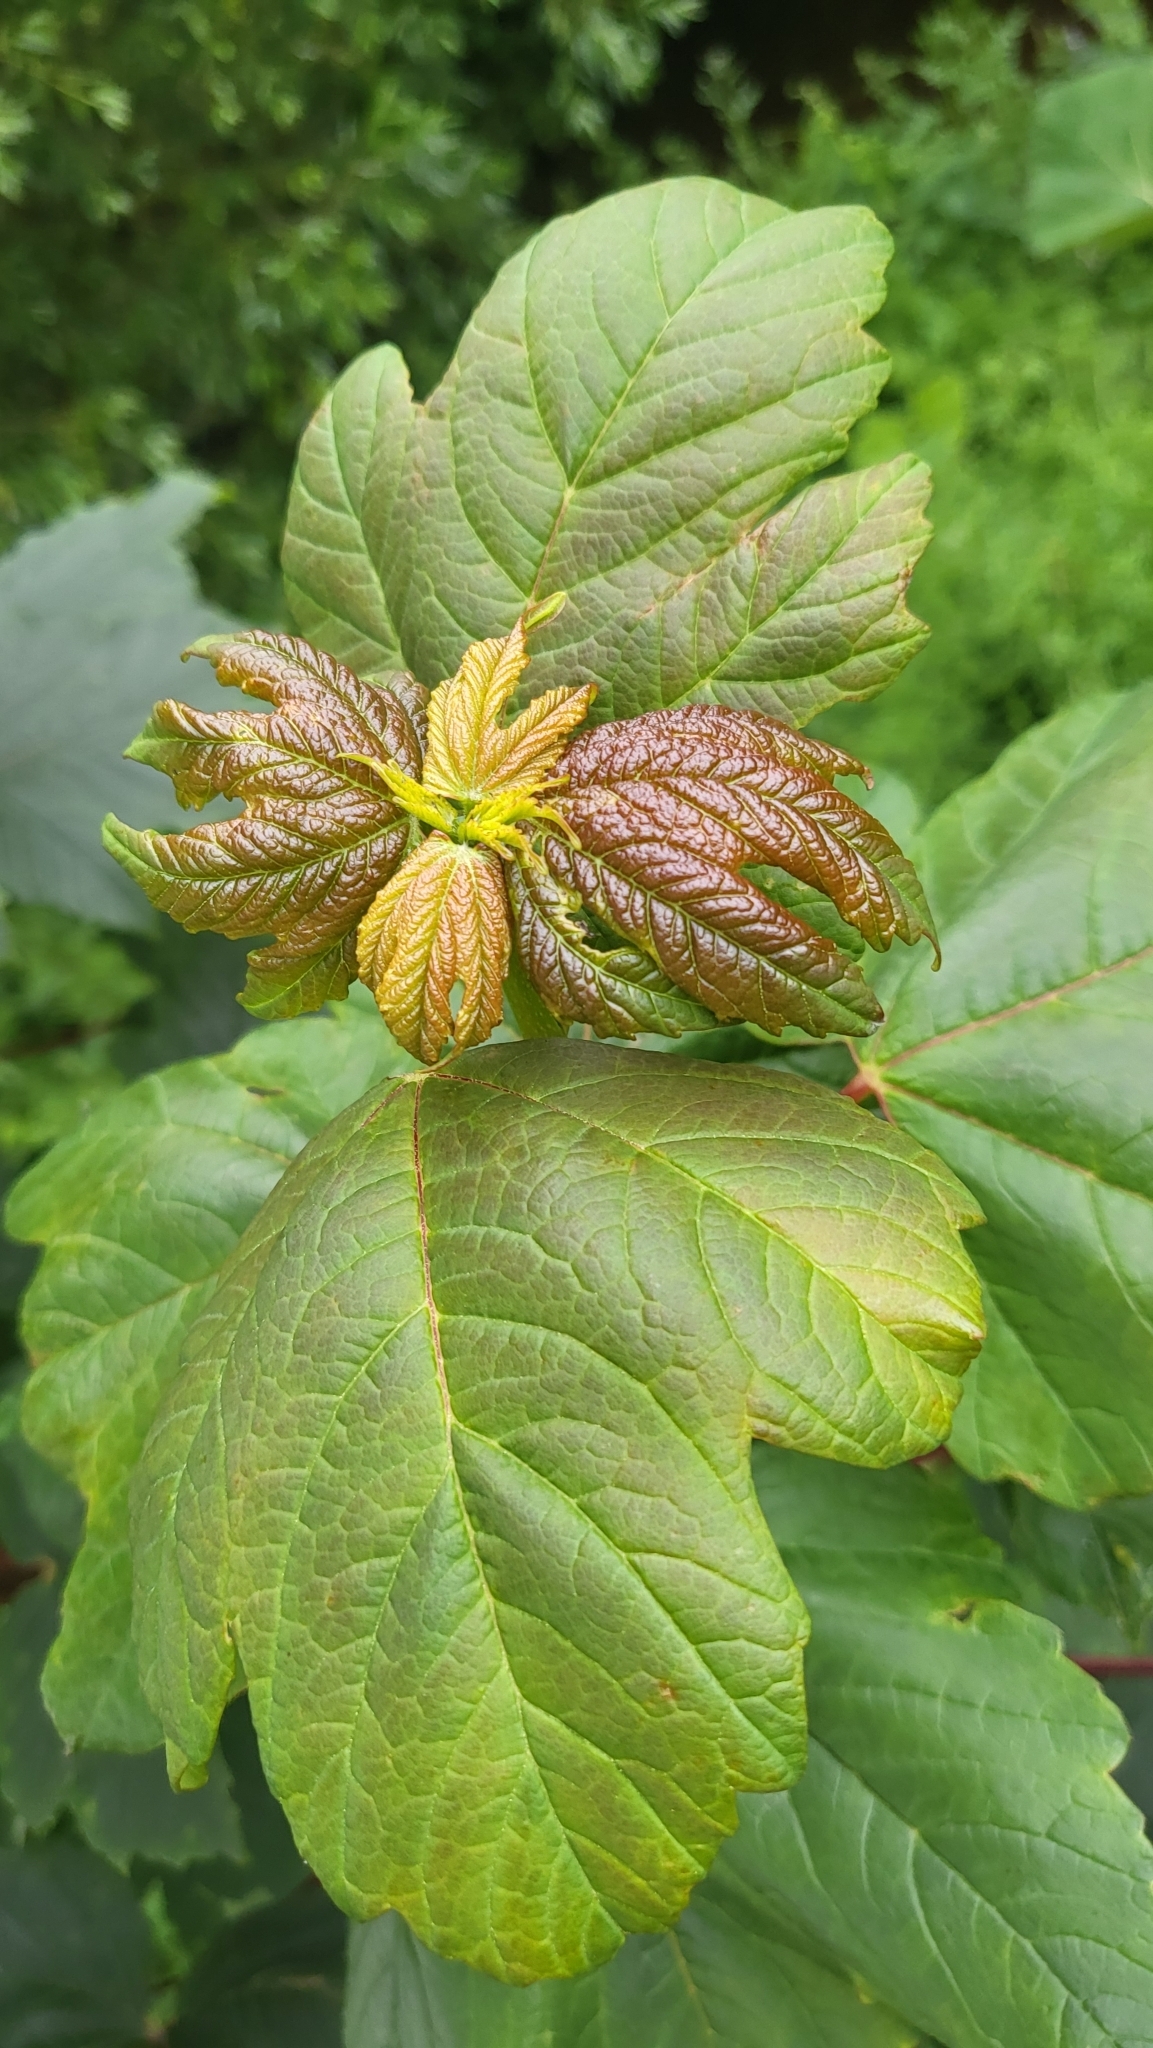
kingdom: Plantae
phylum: Tracheophyta
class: Magnoliopsida
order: Sapindales
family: Sapindaceae
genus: Acer
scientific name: Acer pseudoplatanus
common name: Sycamore
